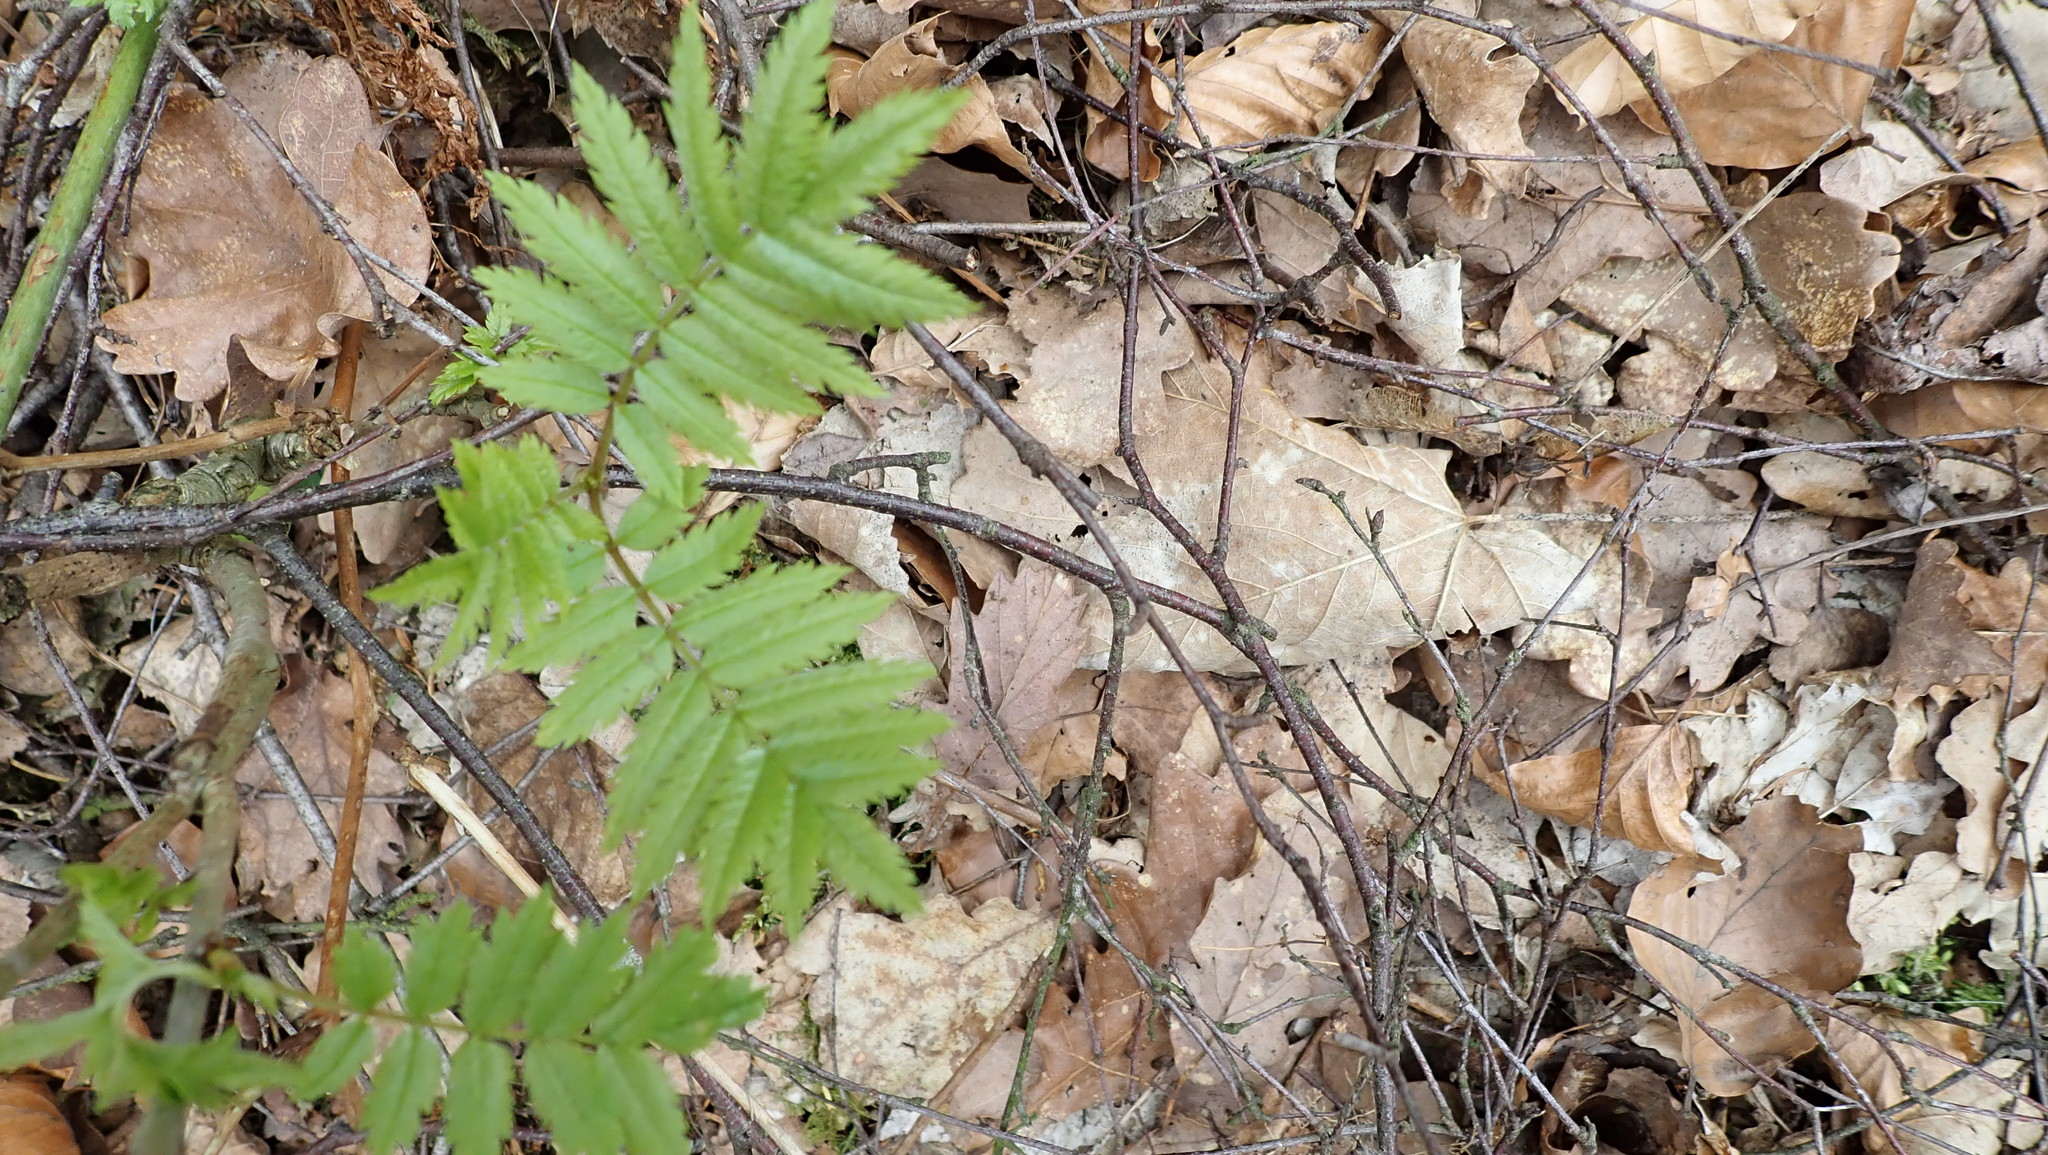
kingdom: Plantae
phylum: Tracheophyta
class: Magnoliopsida
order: Rosales
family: Rosaceae
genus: Sorbus
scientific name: Sorbus aucuparia
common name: Rowan
